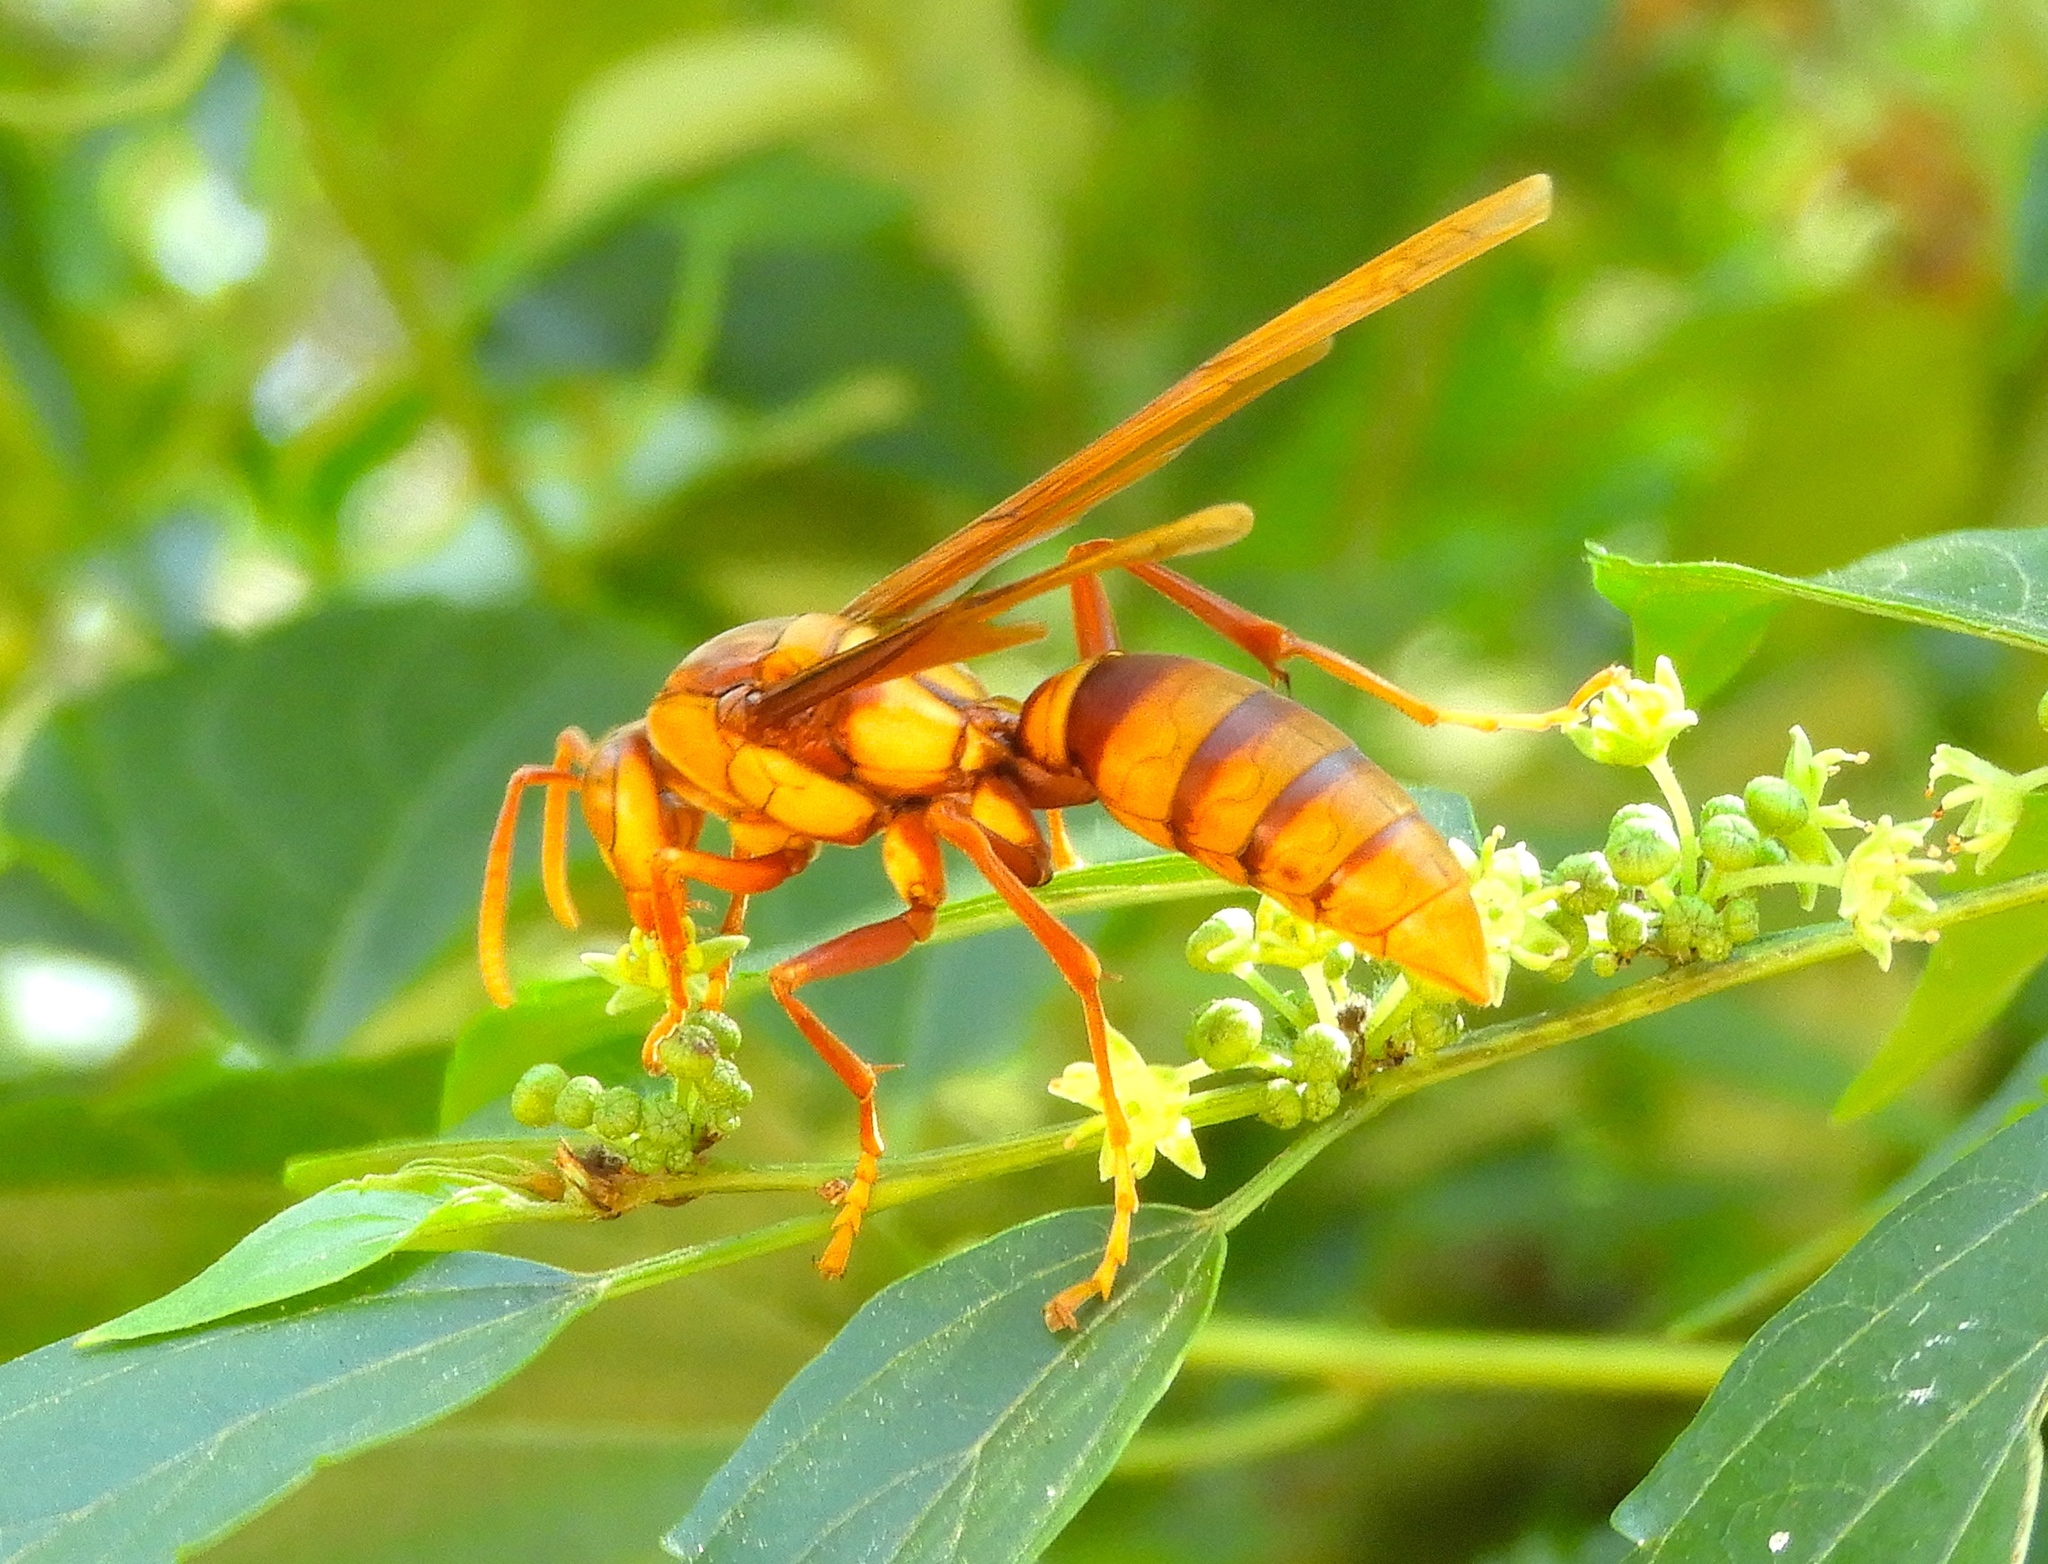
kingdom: Animalia
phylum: Arthropoda
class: Insecta
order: Hymenoptera
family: Eumenidae
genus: Polistes
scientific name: Polistes carnifex
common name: Paper wasp
